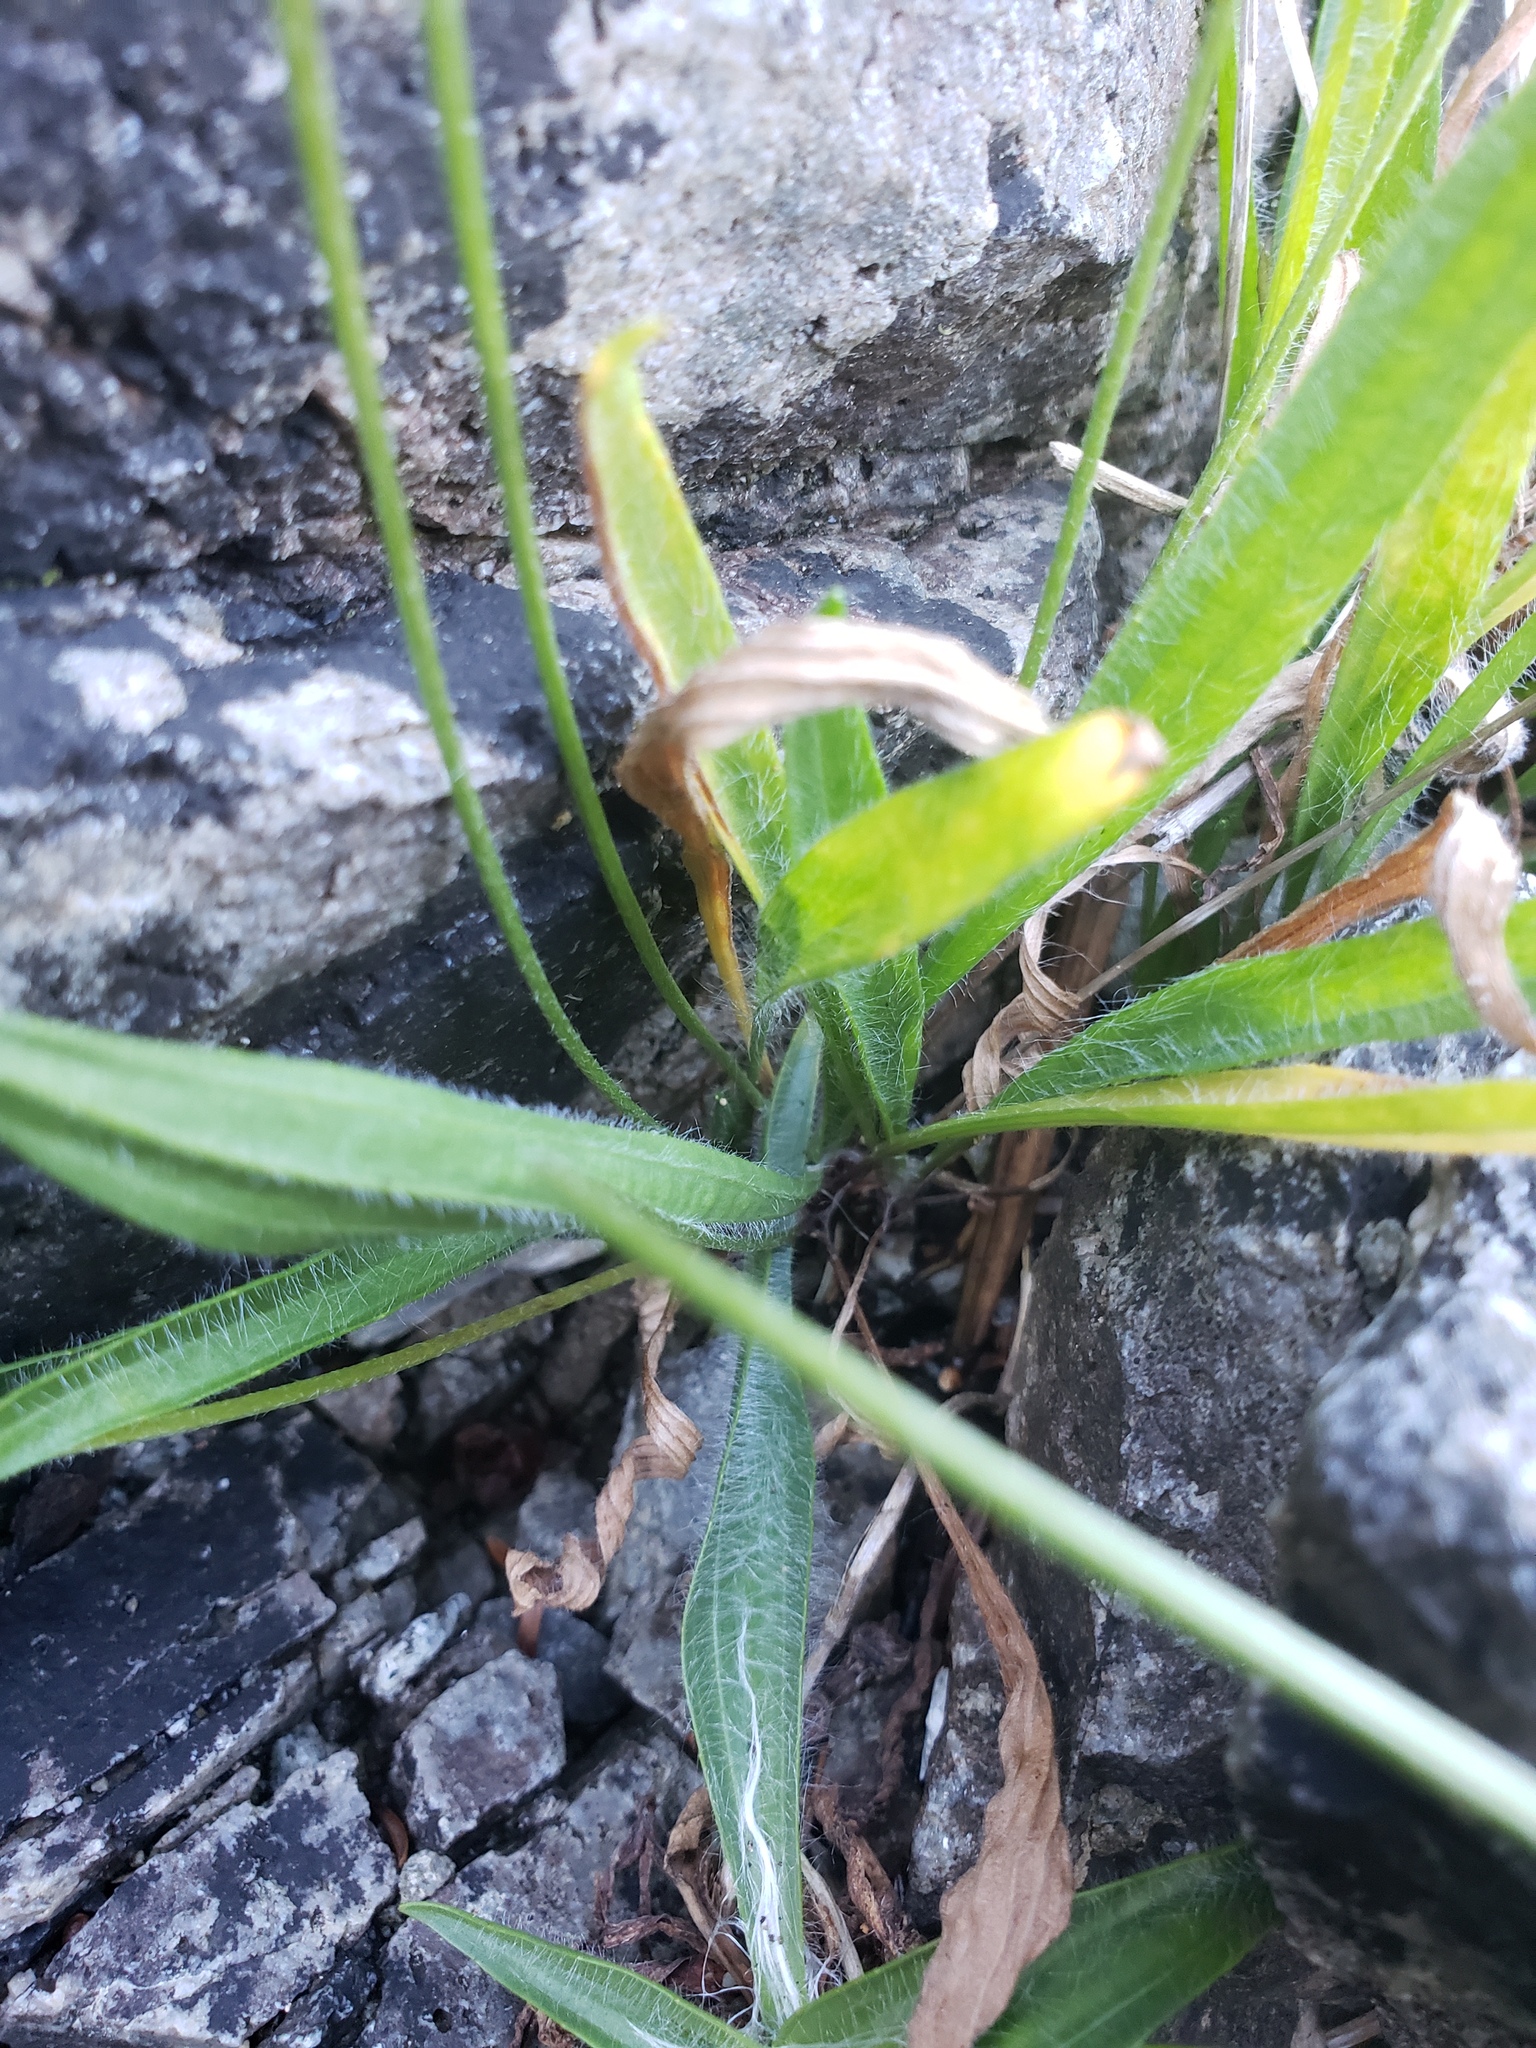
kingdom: Plantae
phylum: Tracheophyta
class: Magnoliopsida
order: Lamiales
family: Plantaginaceae
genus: Plantago
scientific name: Plantago lanceolata
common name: Ribwort plantain
